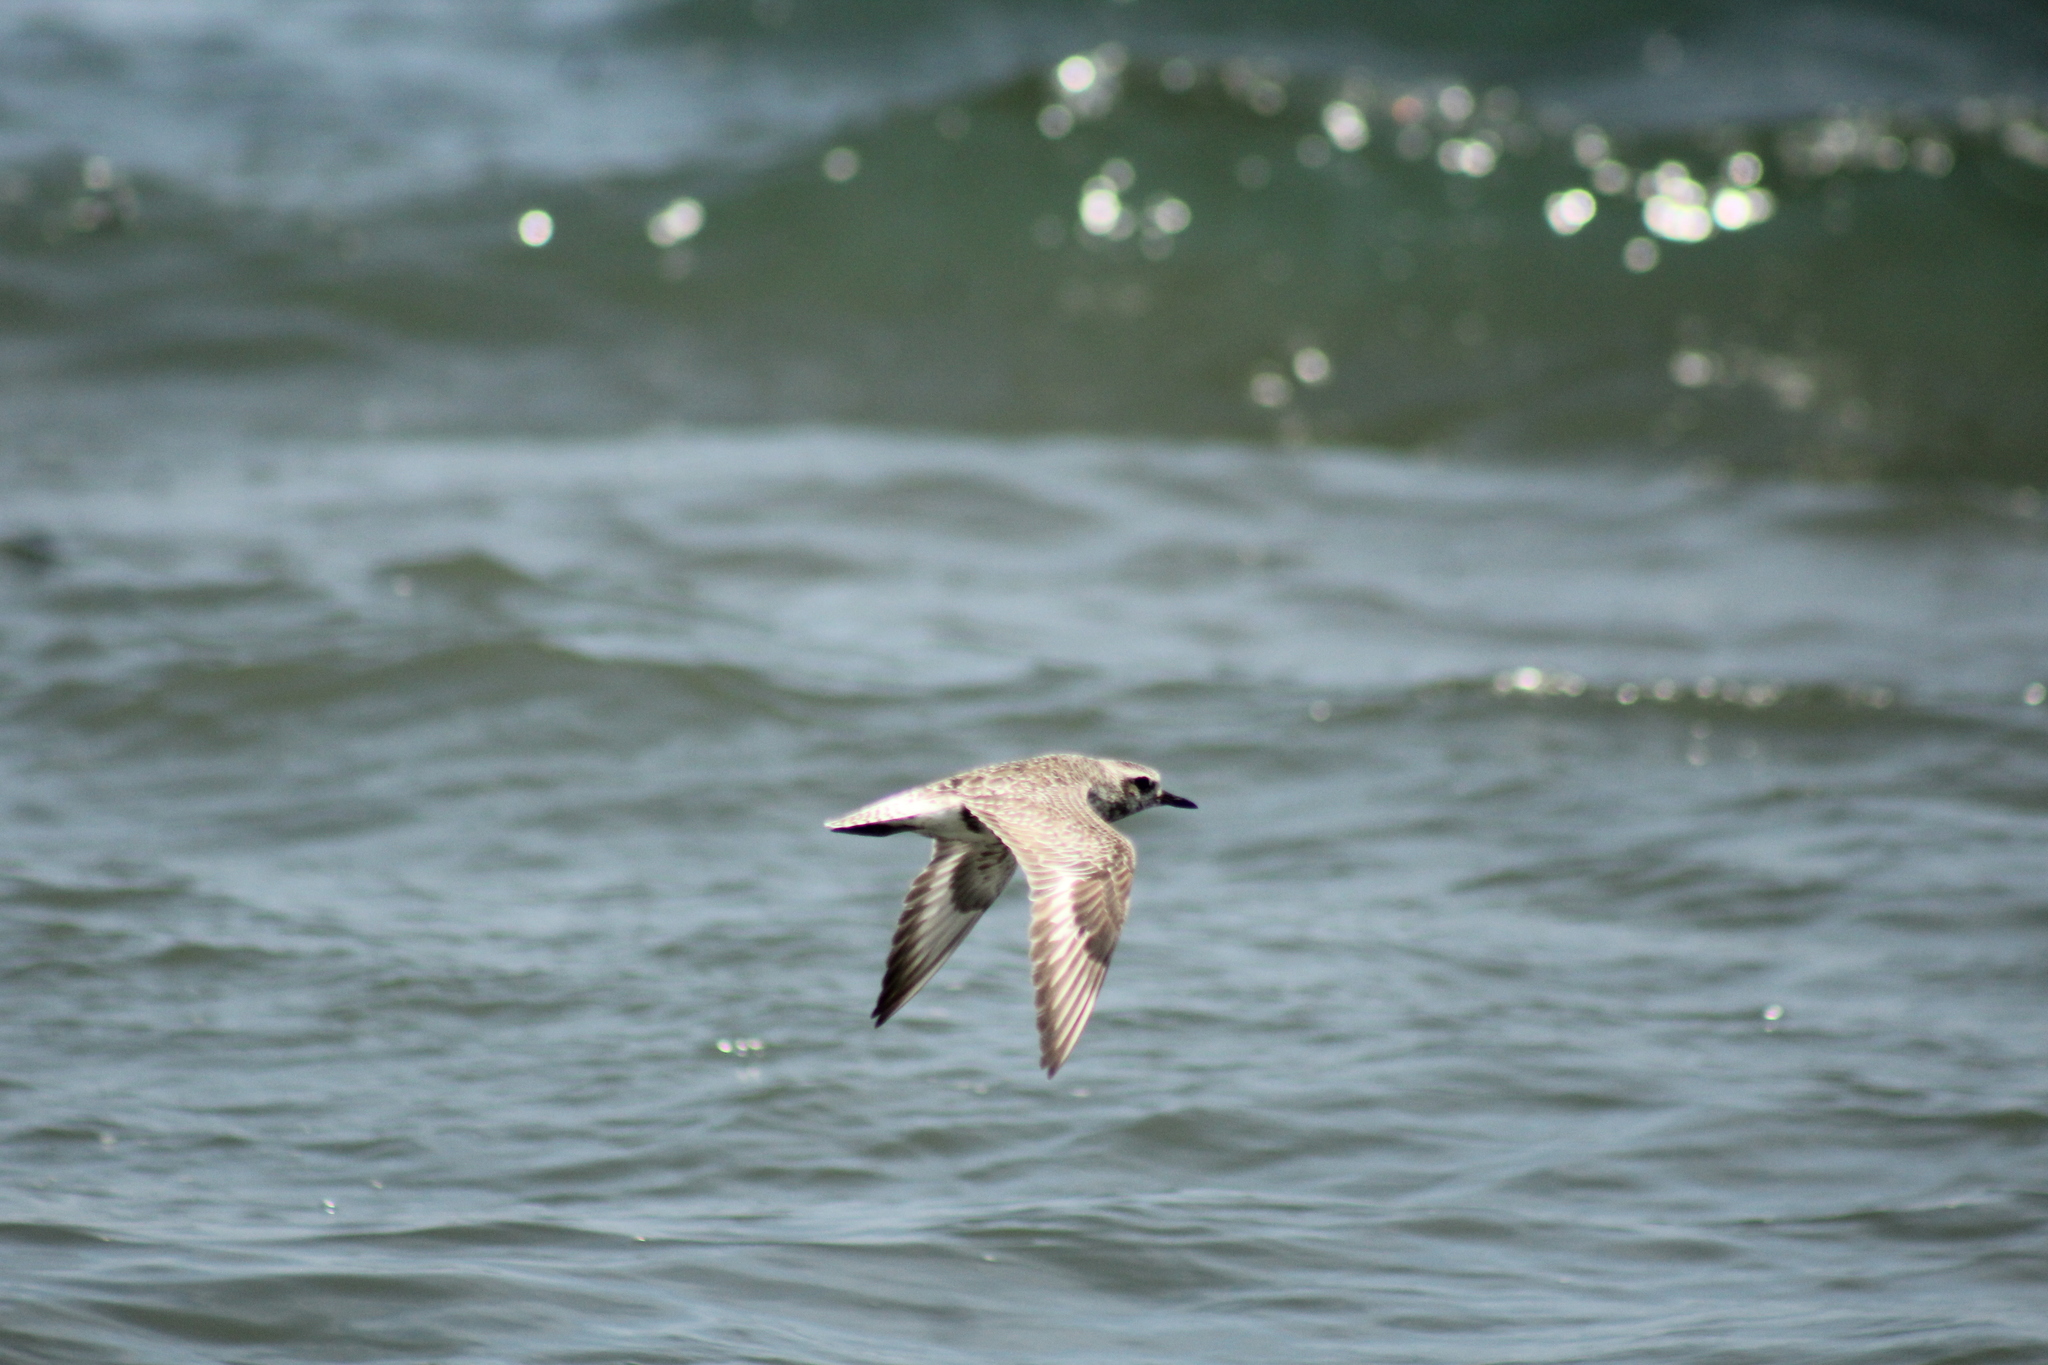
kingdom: Animalia
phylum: Chordata
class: Aves
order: Charadriiformes
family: Charadriidae
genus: Pluvialis
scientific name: Pluvialis squatarola
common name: Grey plover
